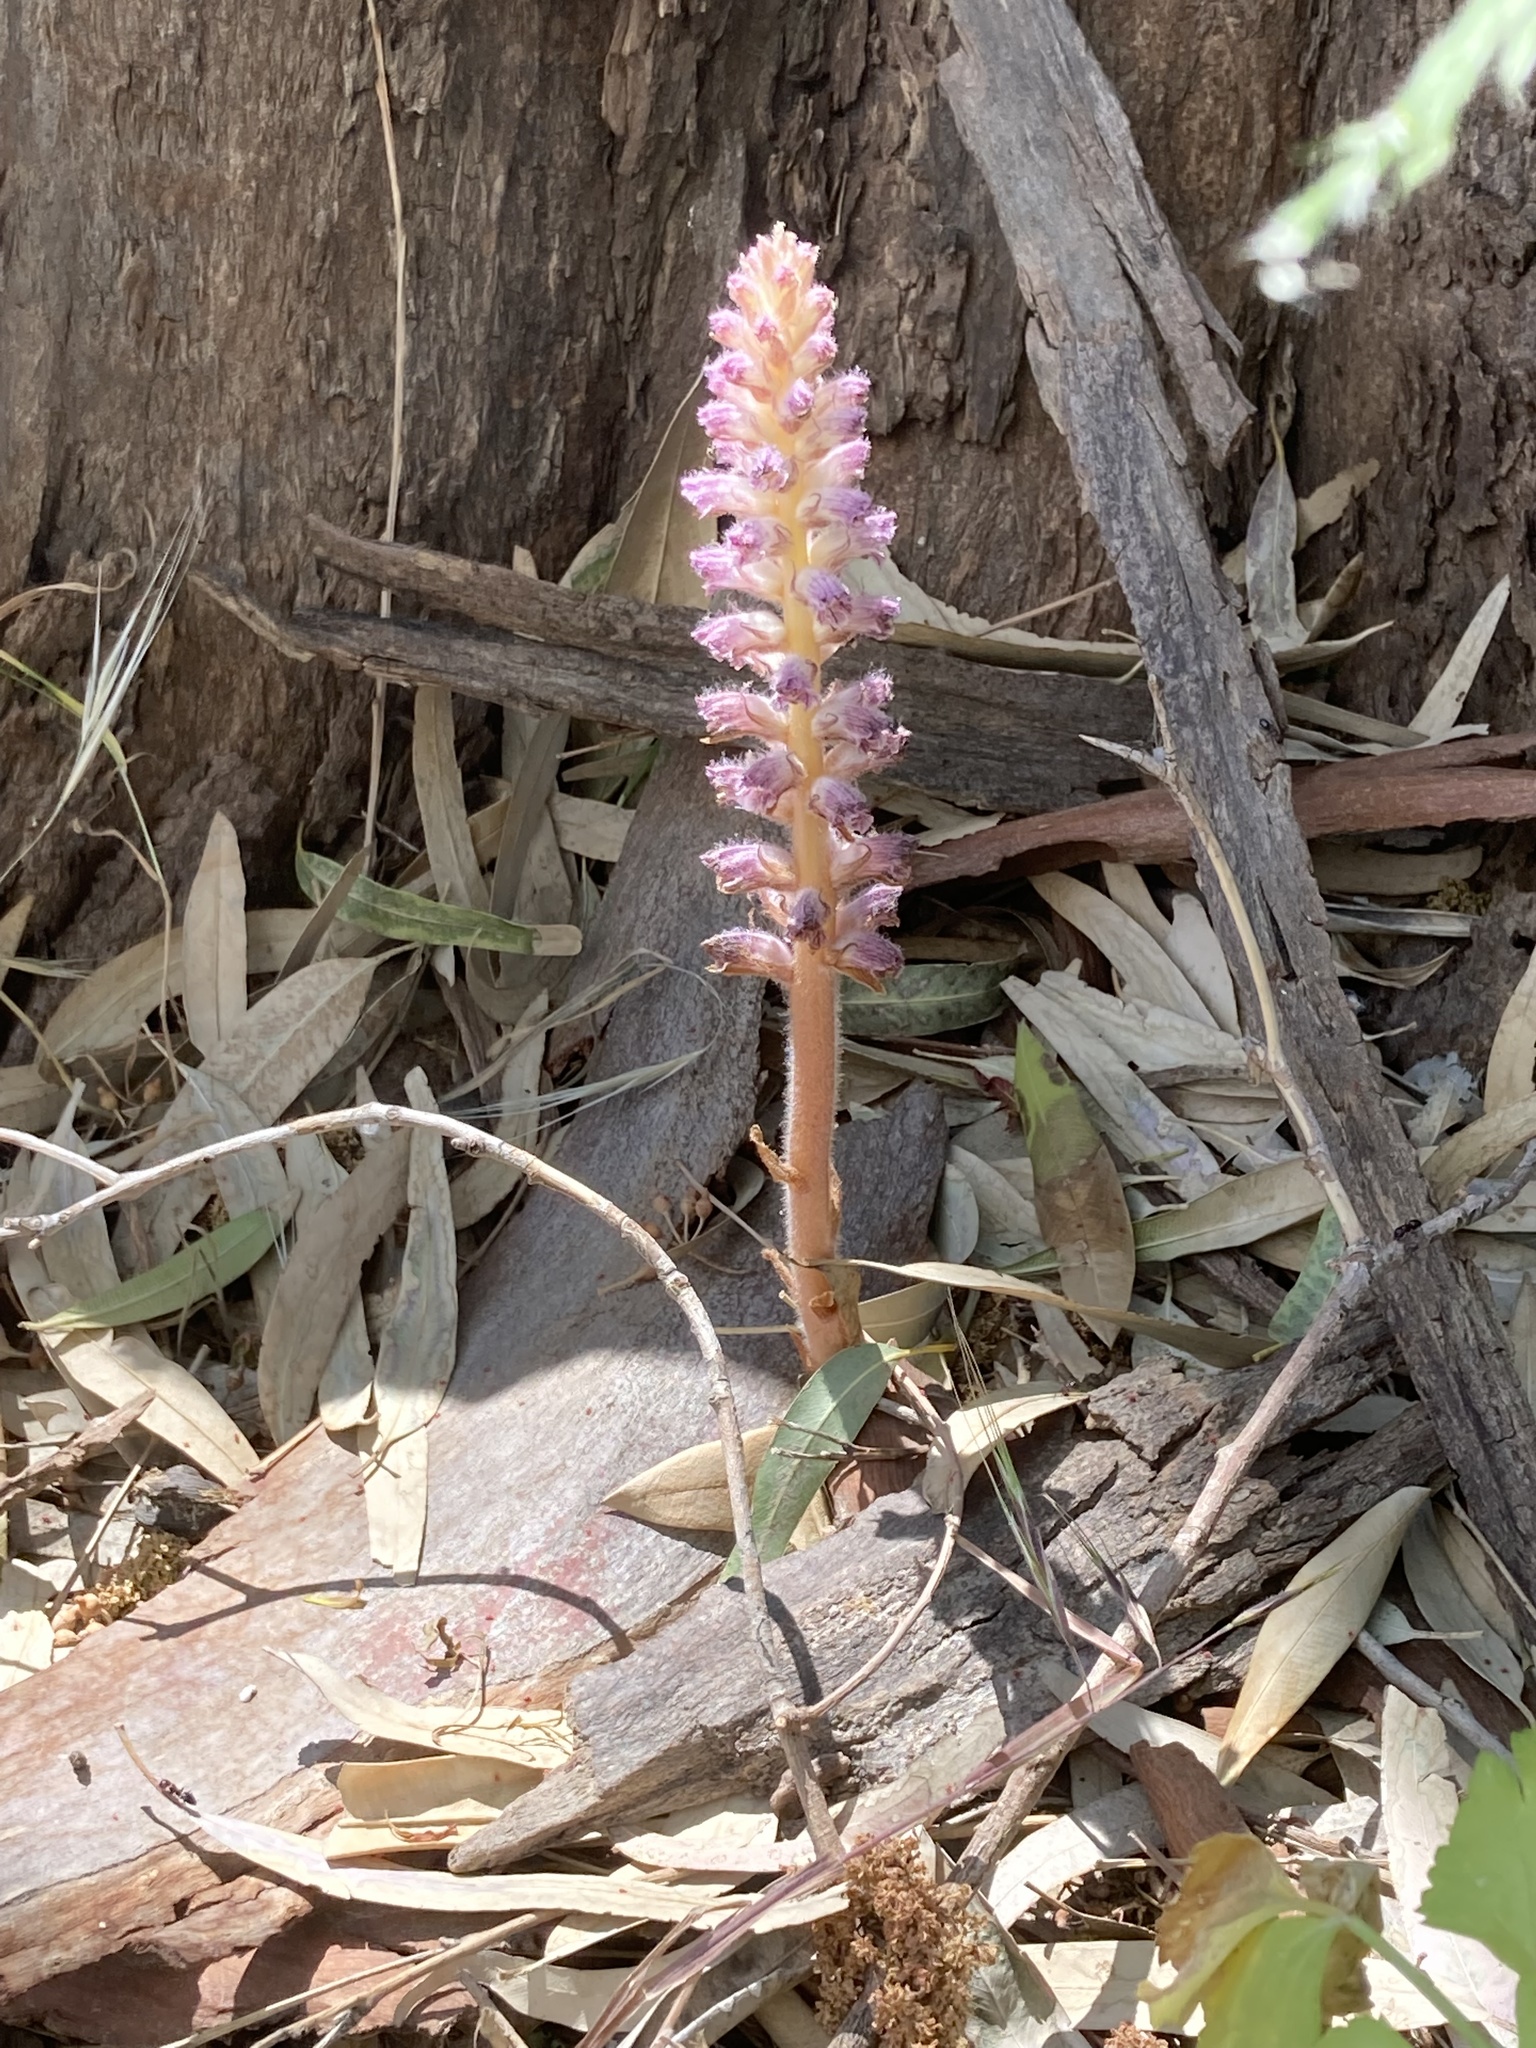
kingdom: Plantae
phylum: Tracheophyta
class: Magnoliopsida
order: Lamiales
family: Orobanchaceae
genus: Orobanche
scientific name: Orobanche pubescens
